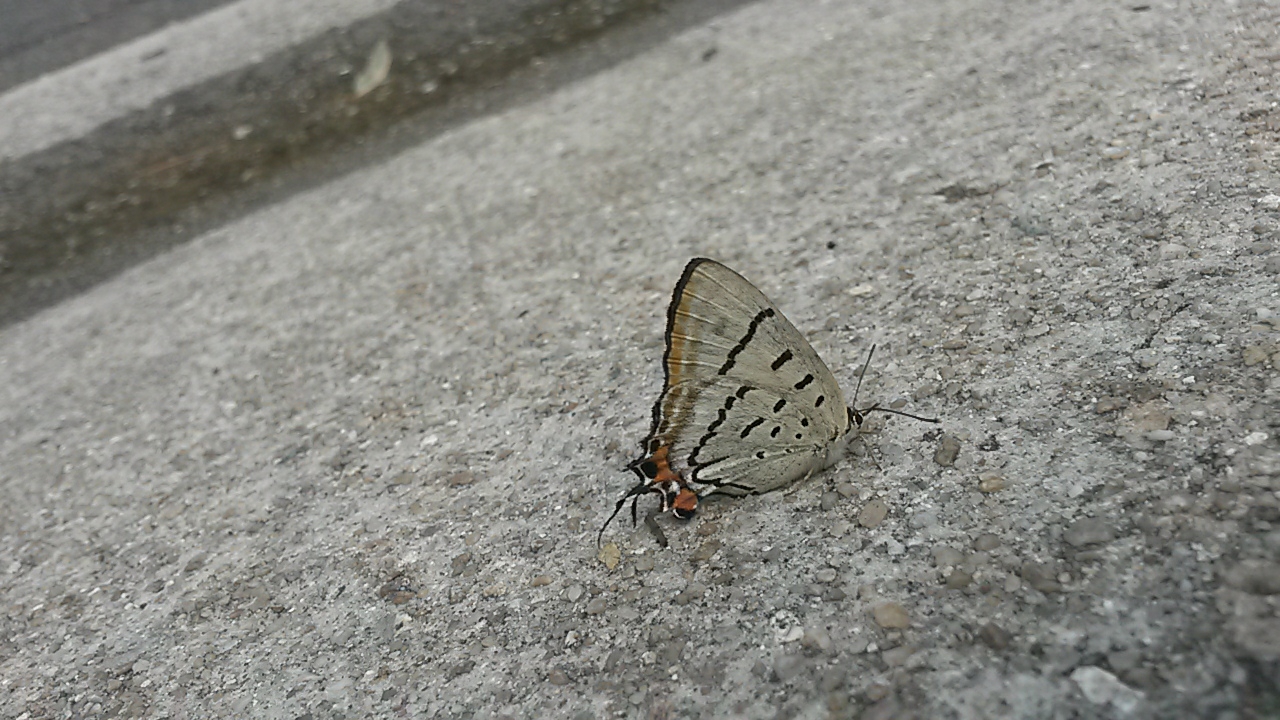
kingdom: Animalia
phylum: Arthropoda
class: Insecta
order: Lepidoptera
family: Lycaenidae
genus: Jalmenus
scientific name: Jalmenus evagoras
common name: Common imperial blue
